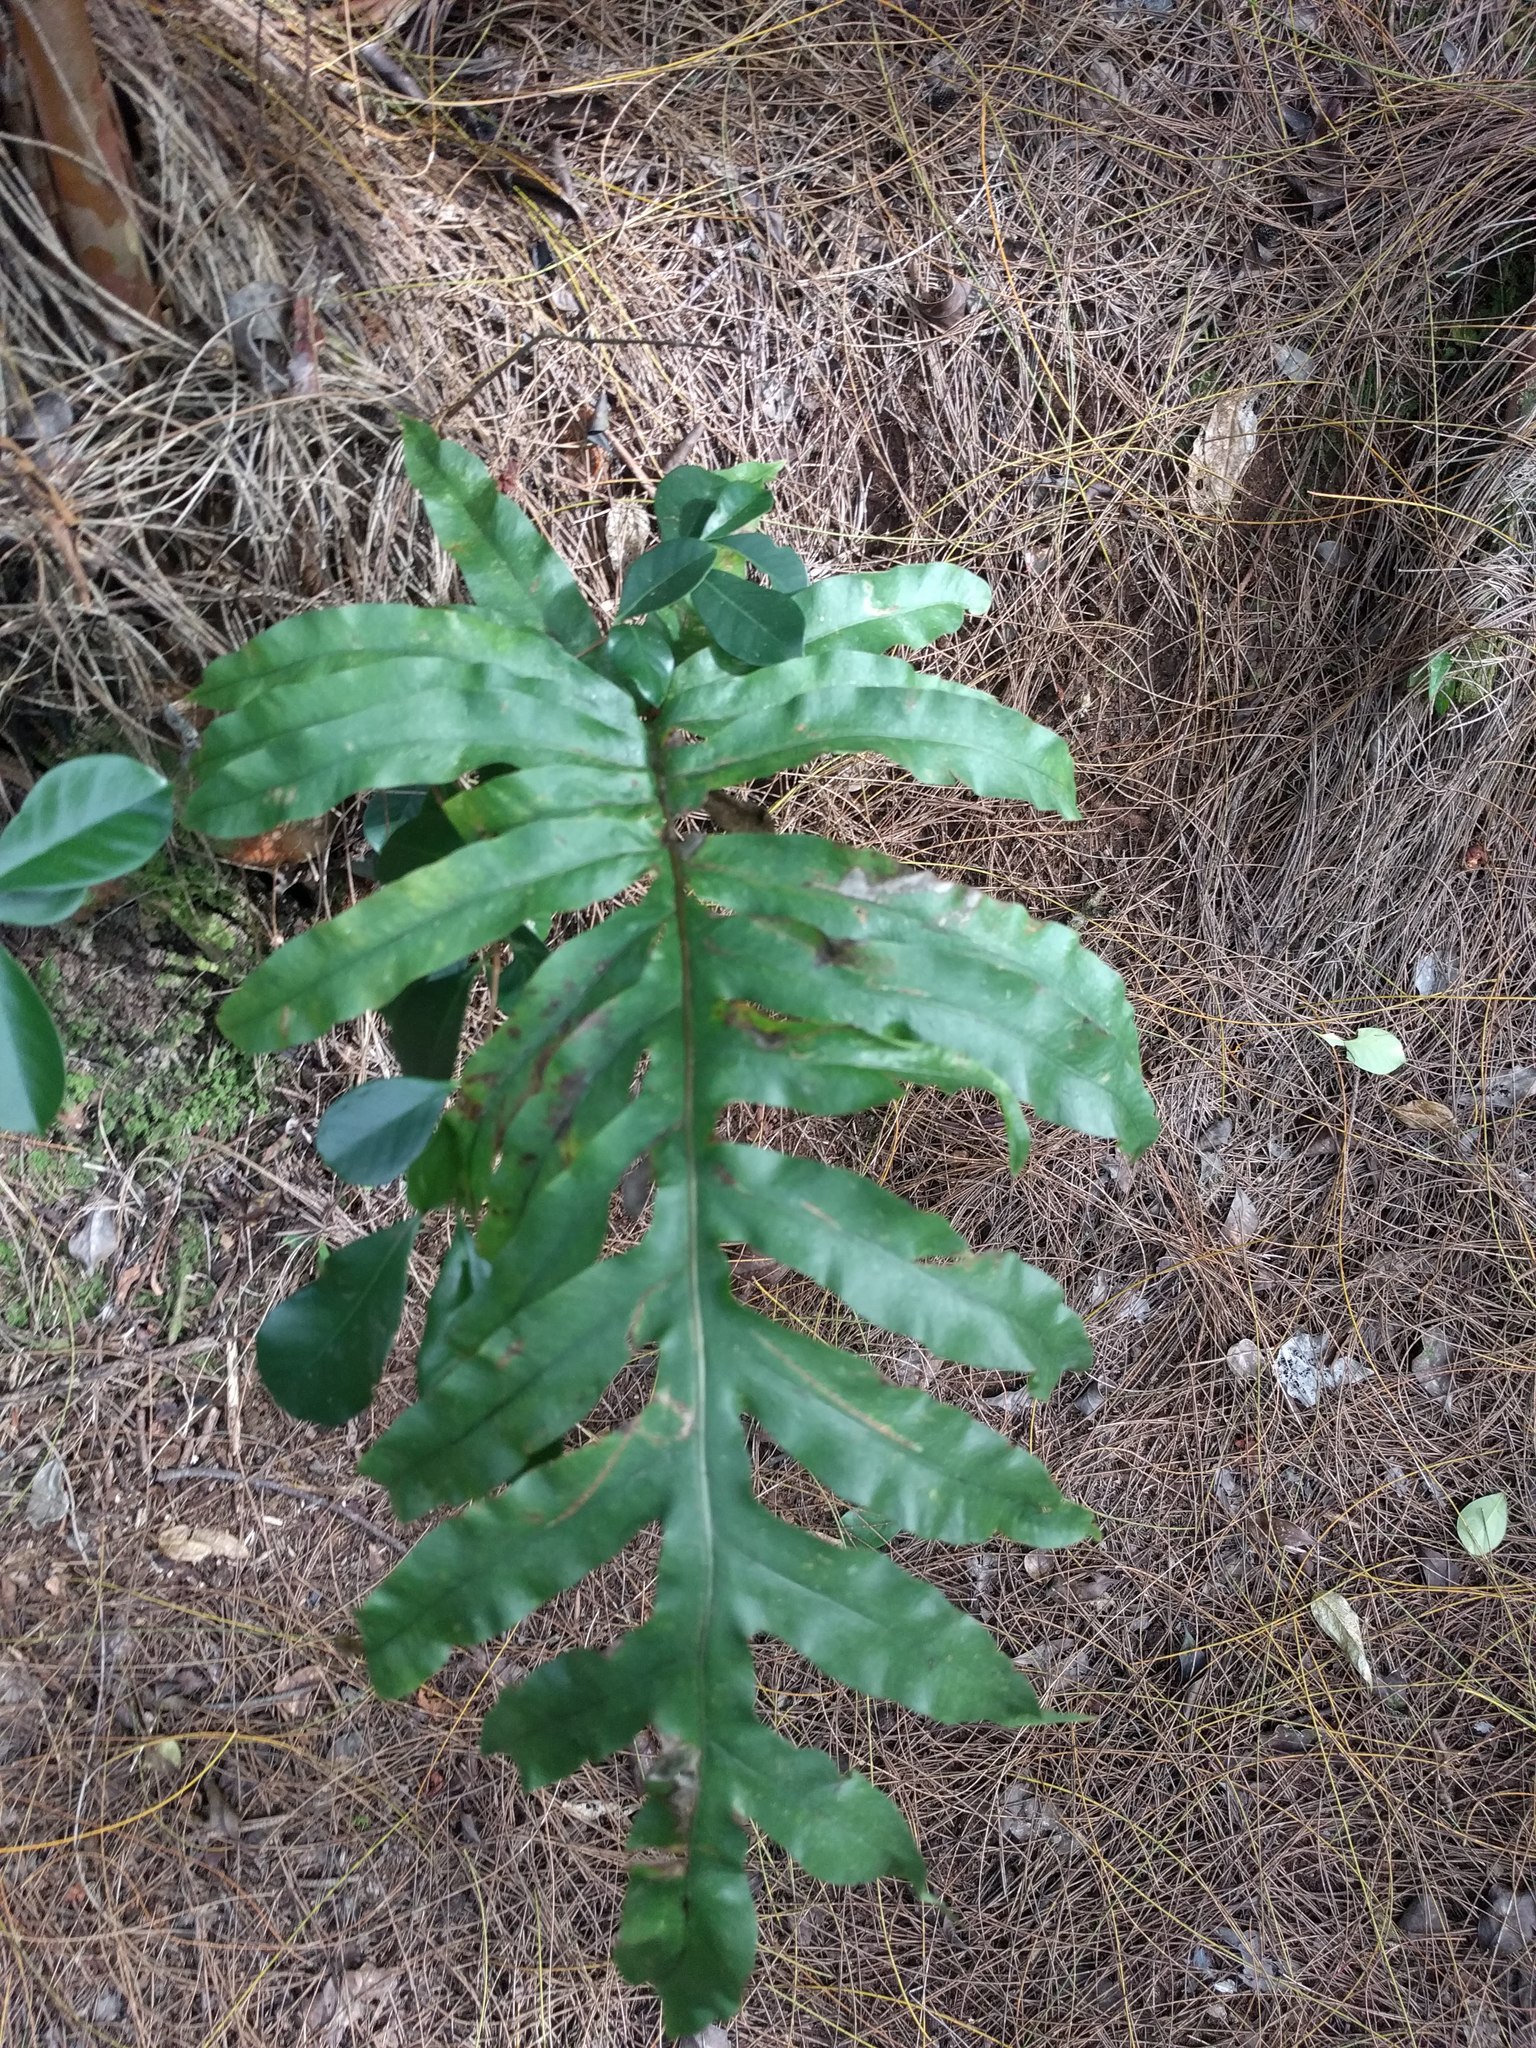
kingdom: Plantae
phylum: Tracheophyta
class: Polypodiopsida
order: Polypodiales
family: Polypodiaceae
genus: Phlebodium
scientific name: Phlebodium aureum
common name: Gold-foot fern
